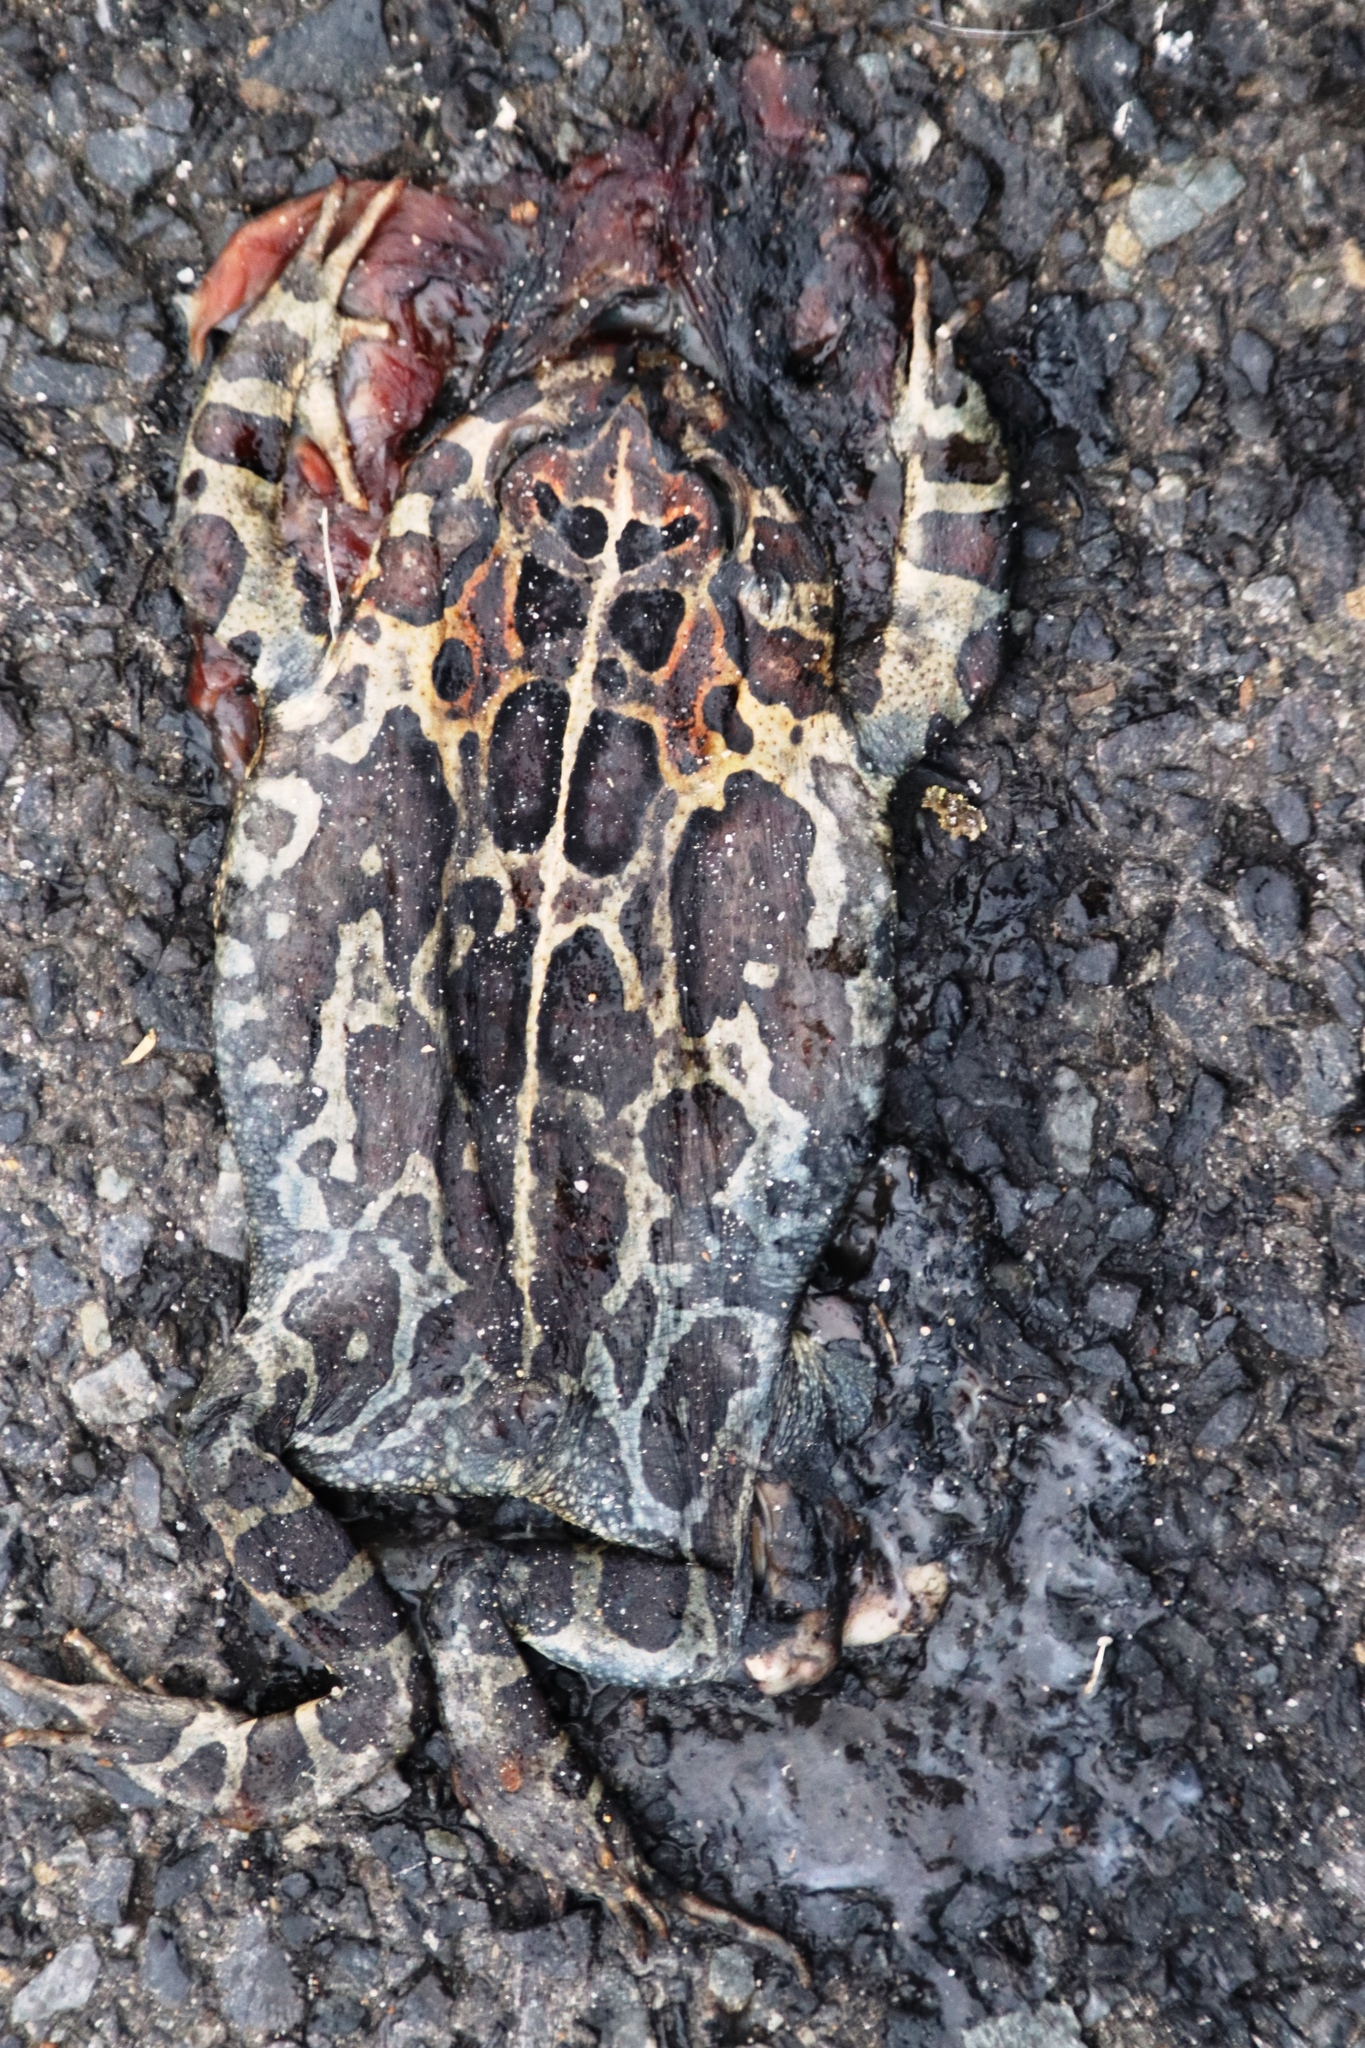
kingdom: Animalia
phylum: Chordata
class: Amphibia
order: Anura
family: Bufonidae
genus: Sclerophrys
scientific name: Sclerophrys pantherina
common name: Panther toad
